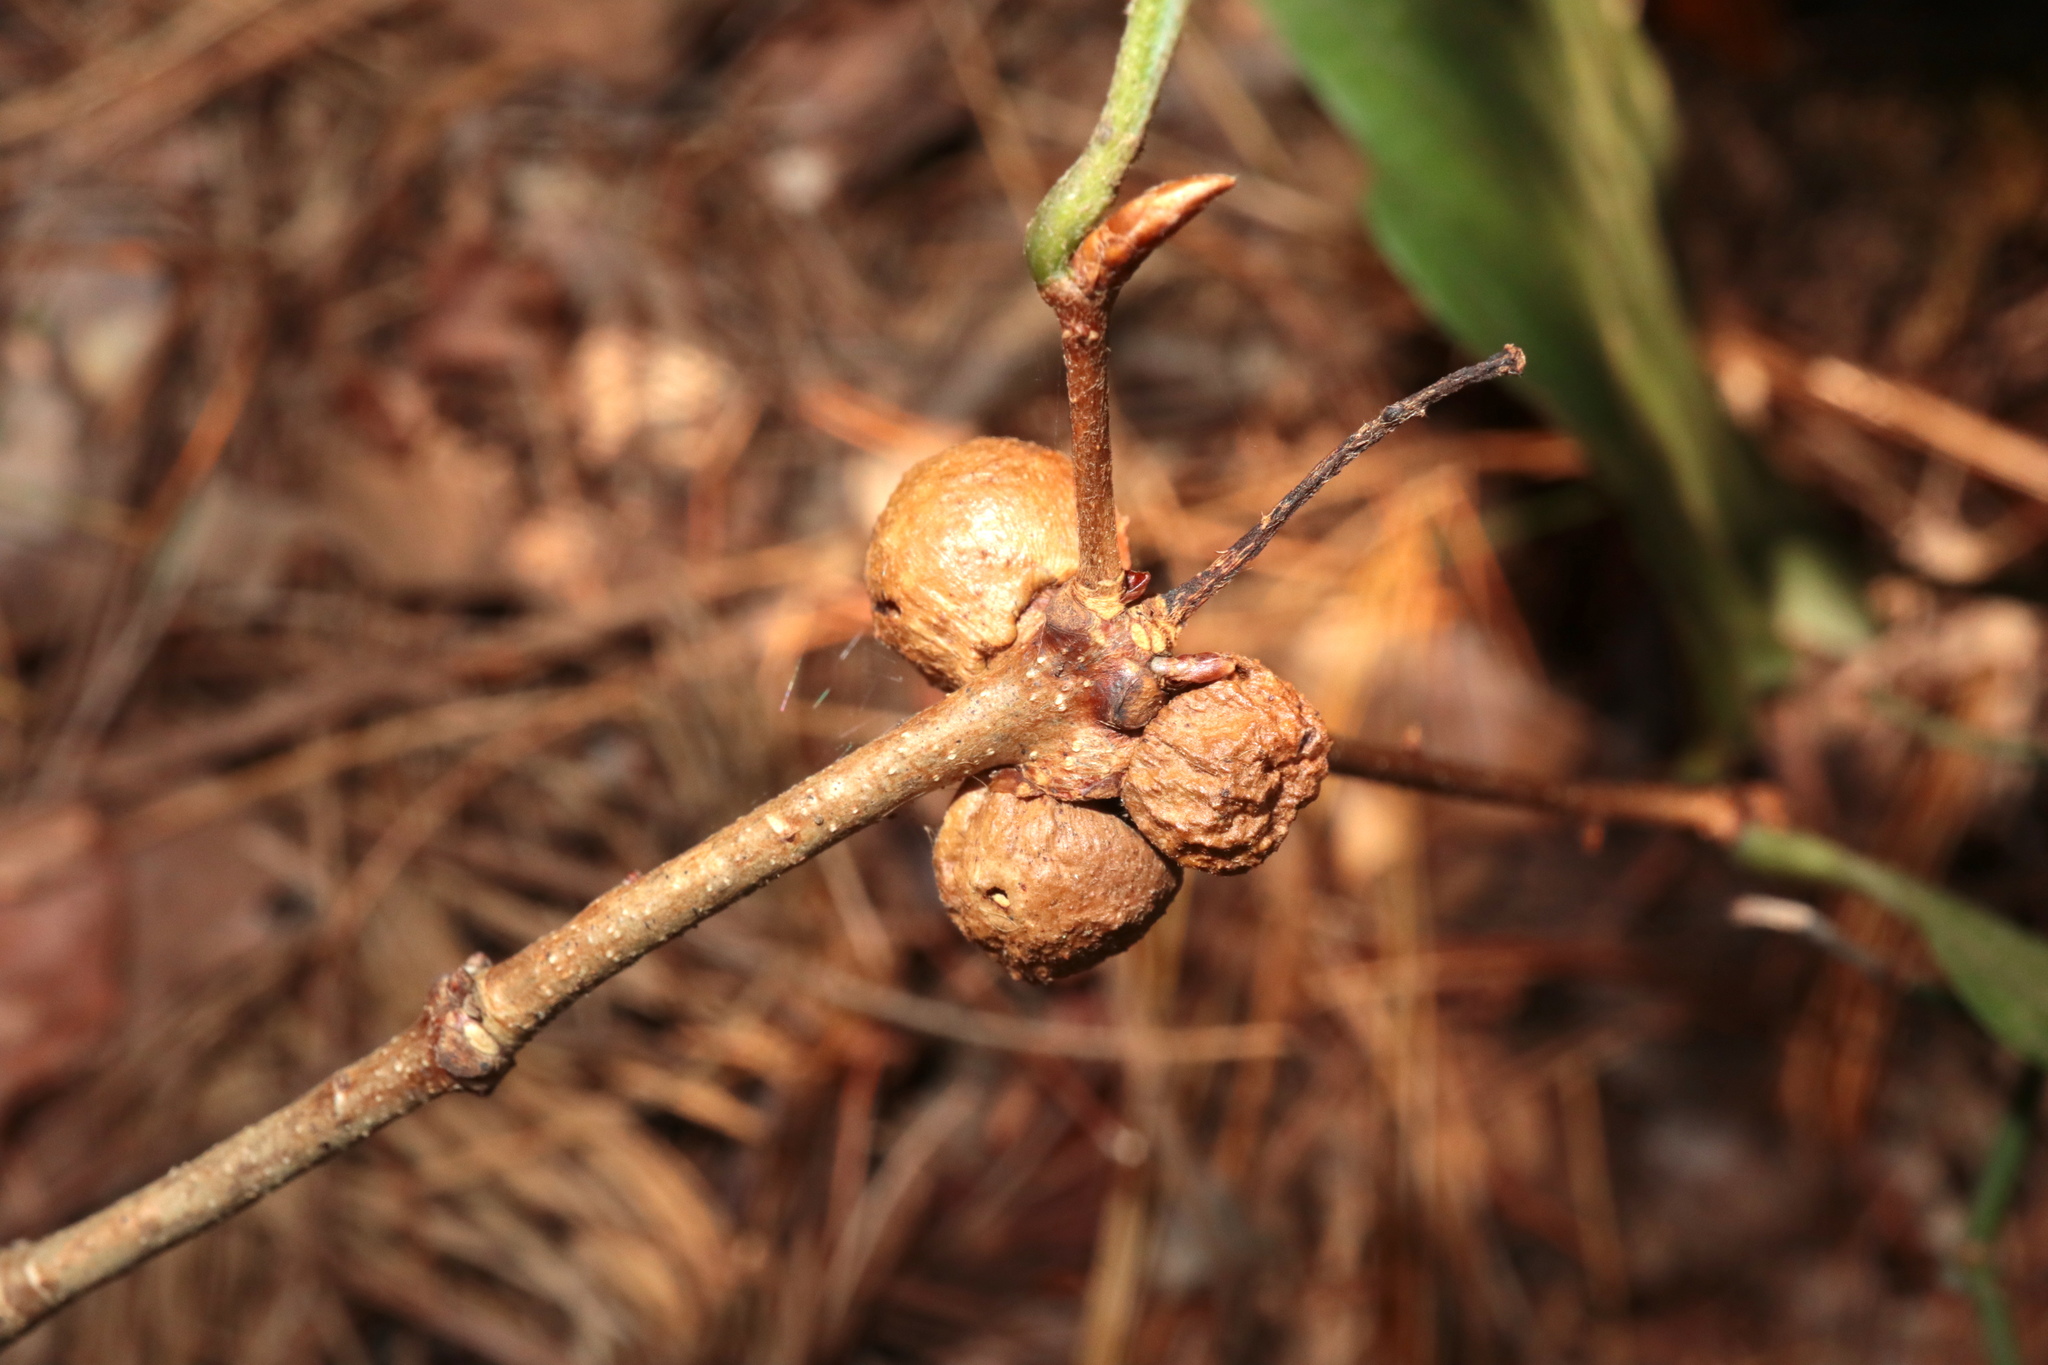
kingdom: Animalia
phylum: Arthropoda
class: Insecta
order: Hymenoptera
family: Cynipidae
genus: Disholcaspis
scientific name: Disholcaspis quercusglobulus
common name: Round bullet gall wasp
